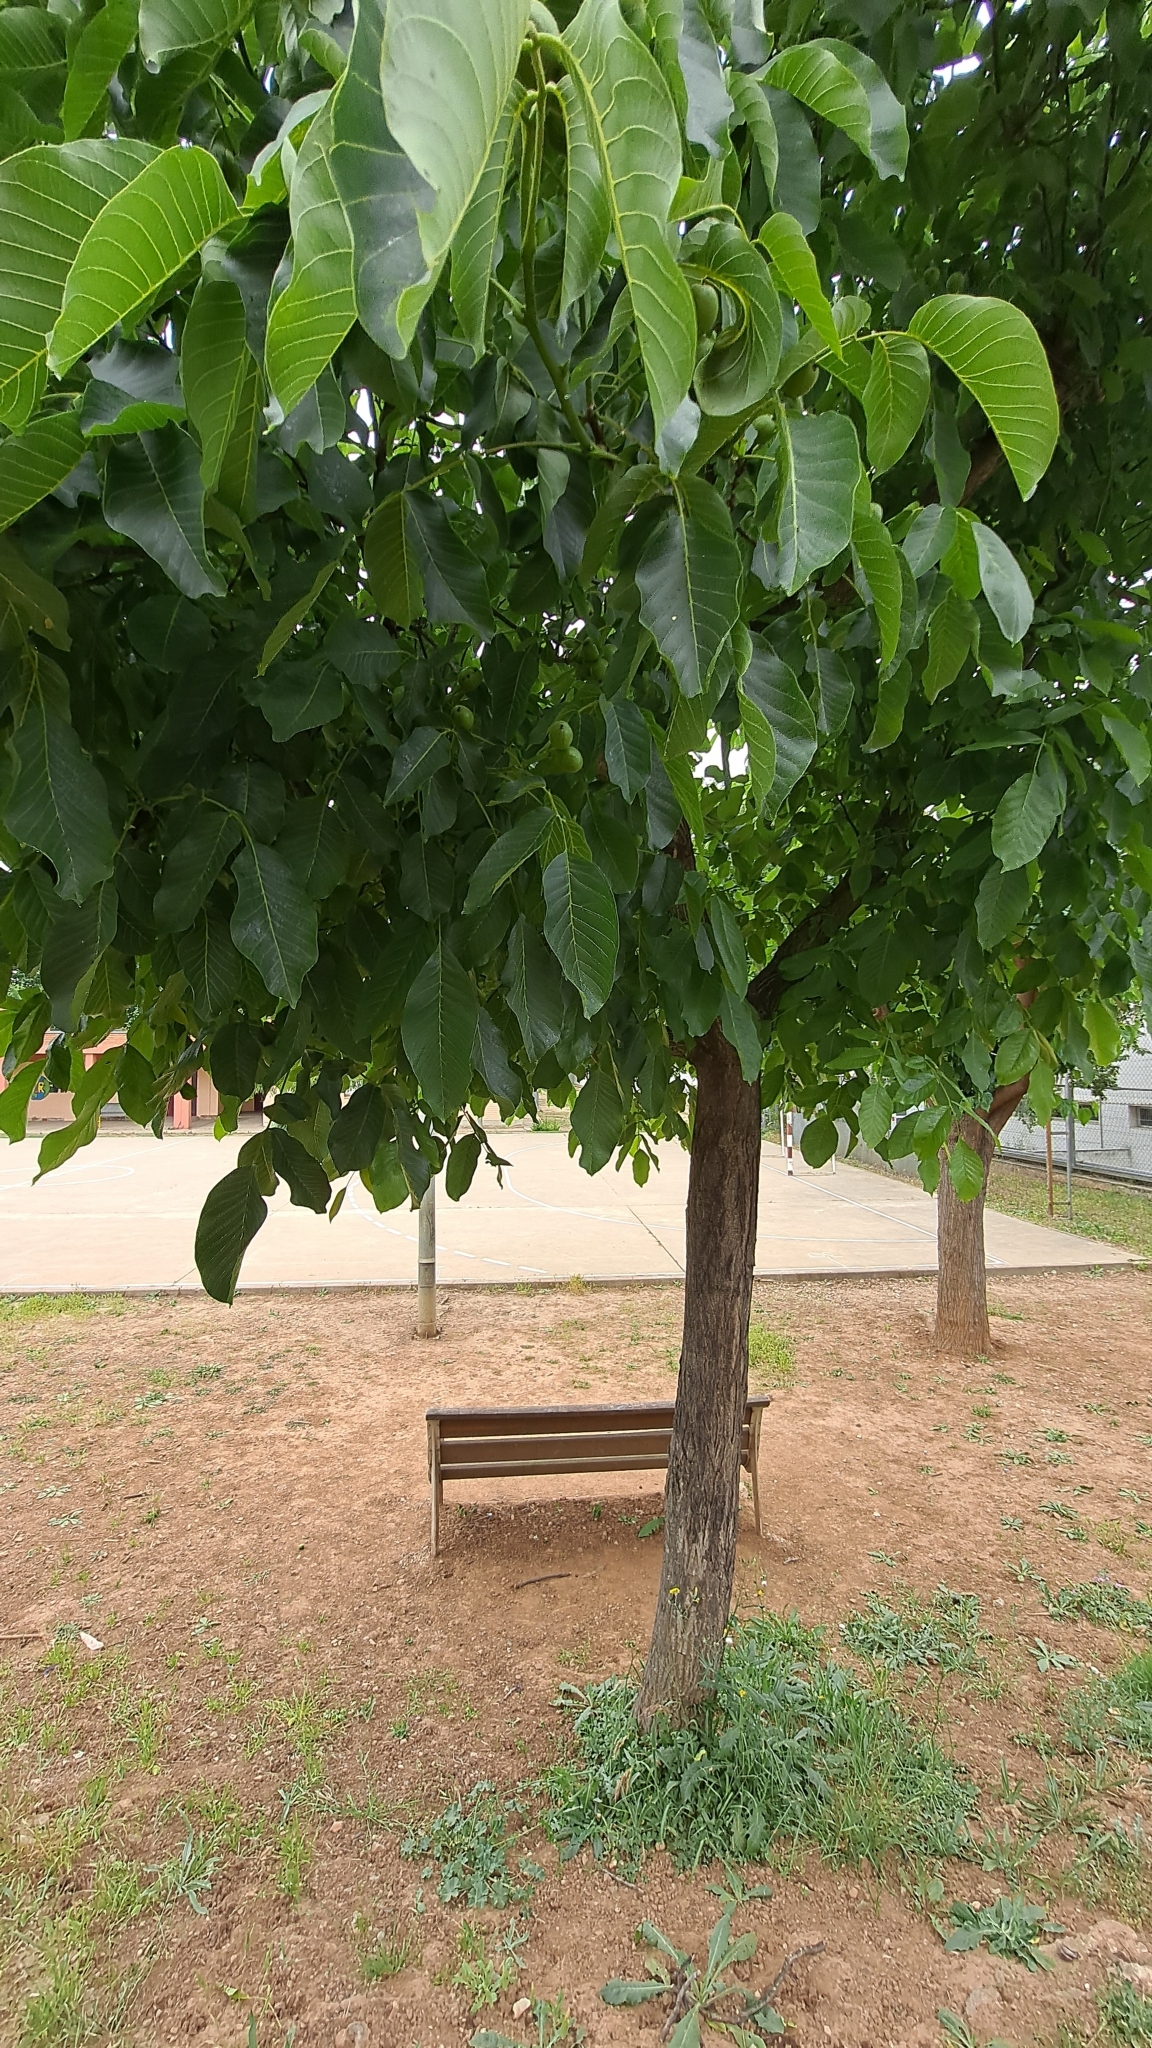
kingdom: Plantae
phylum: Tracheophyta
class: Magnoliopsida
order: Fagales
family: Juglandaceae
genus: Juglans
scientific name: Juglans regia
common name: Walnut
